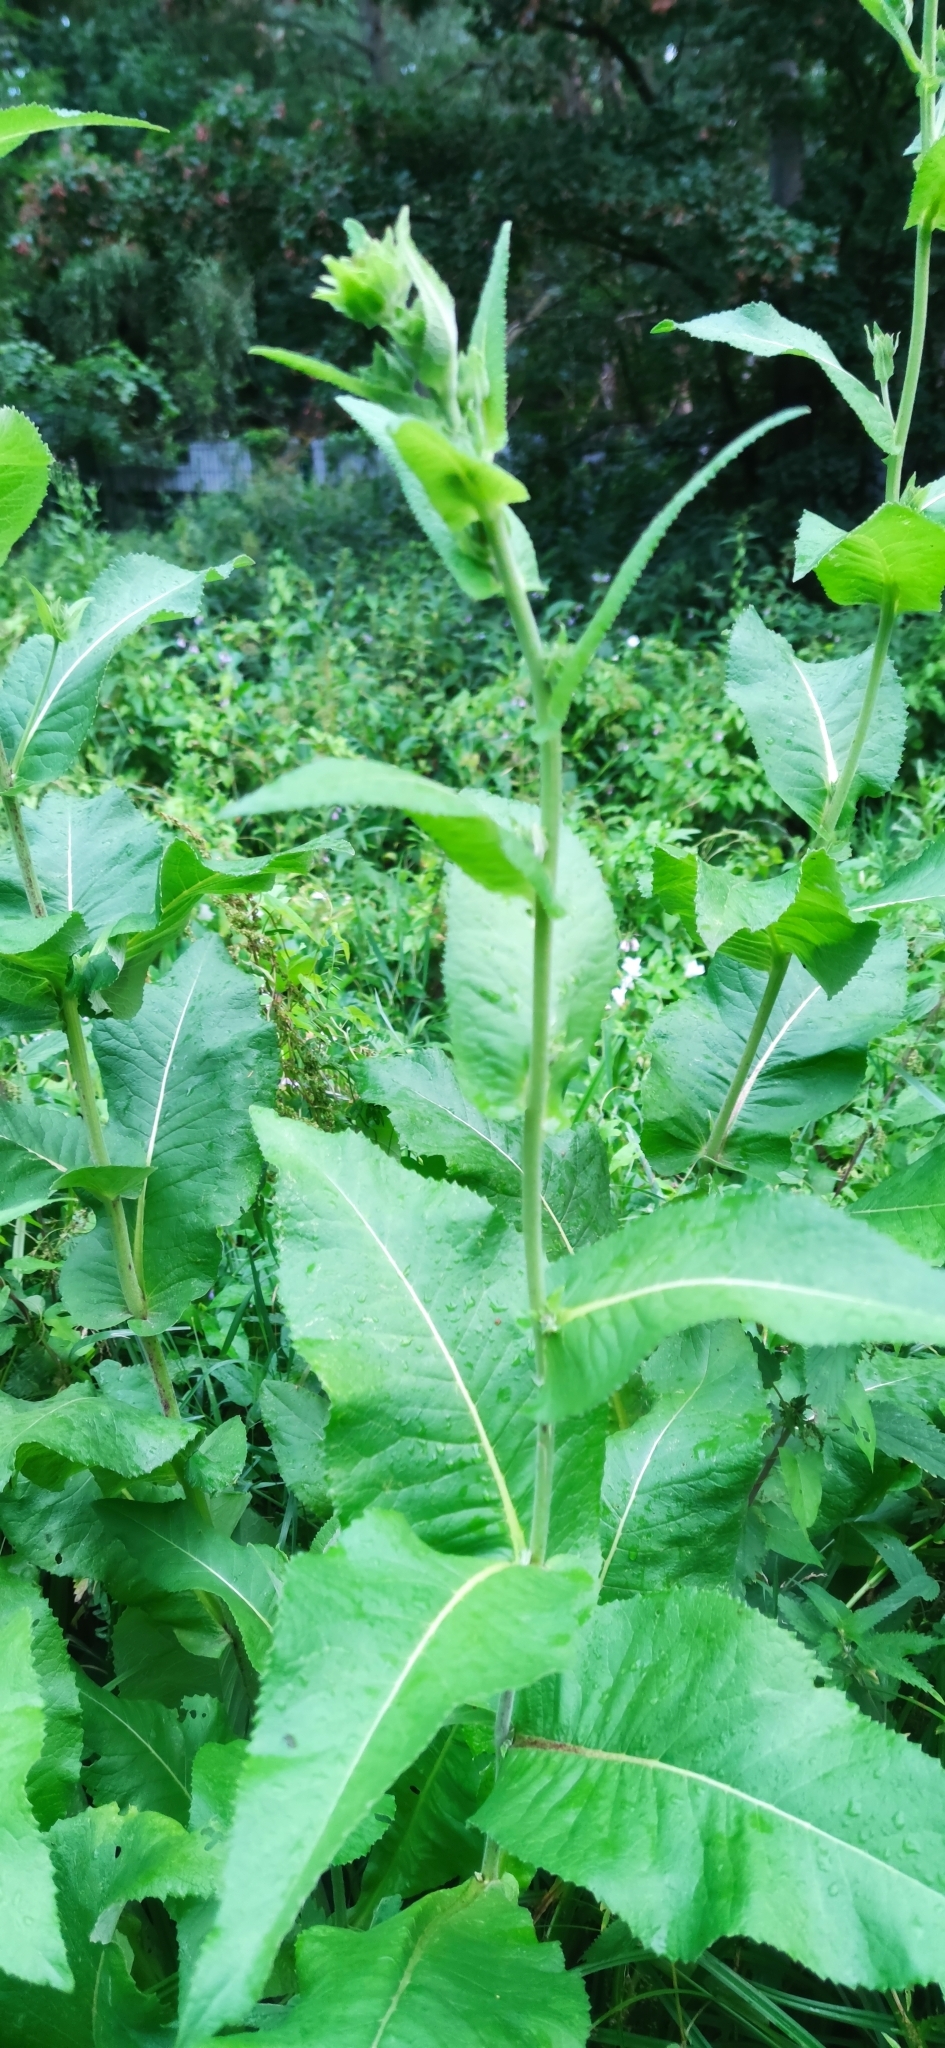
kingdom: Plantae
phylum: Tracheophyta
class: Magnoliopsida
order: Asterales
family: Asteraceae
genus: Inula
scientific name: Inula helenium
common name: Elecampane
